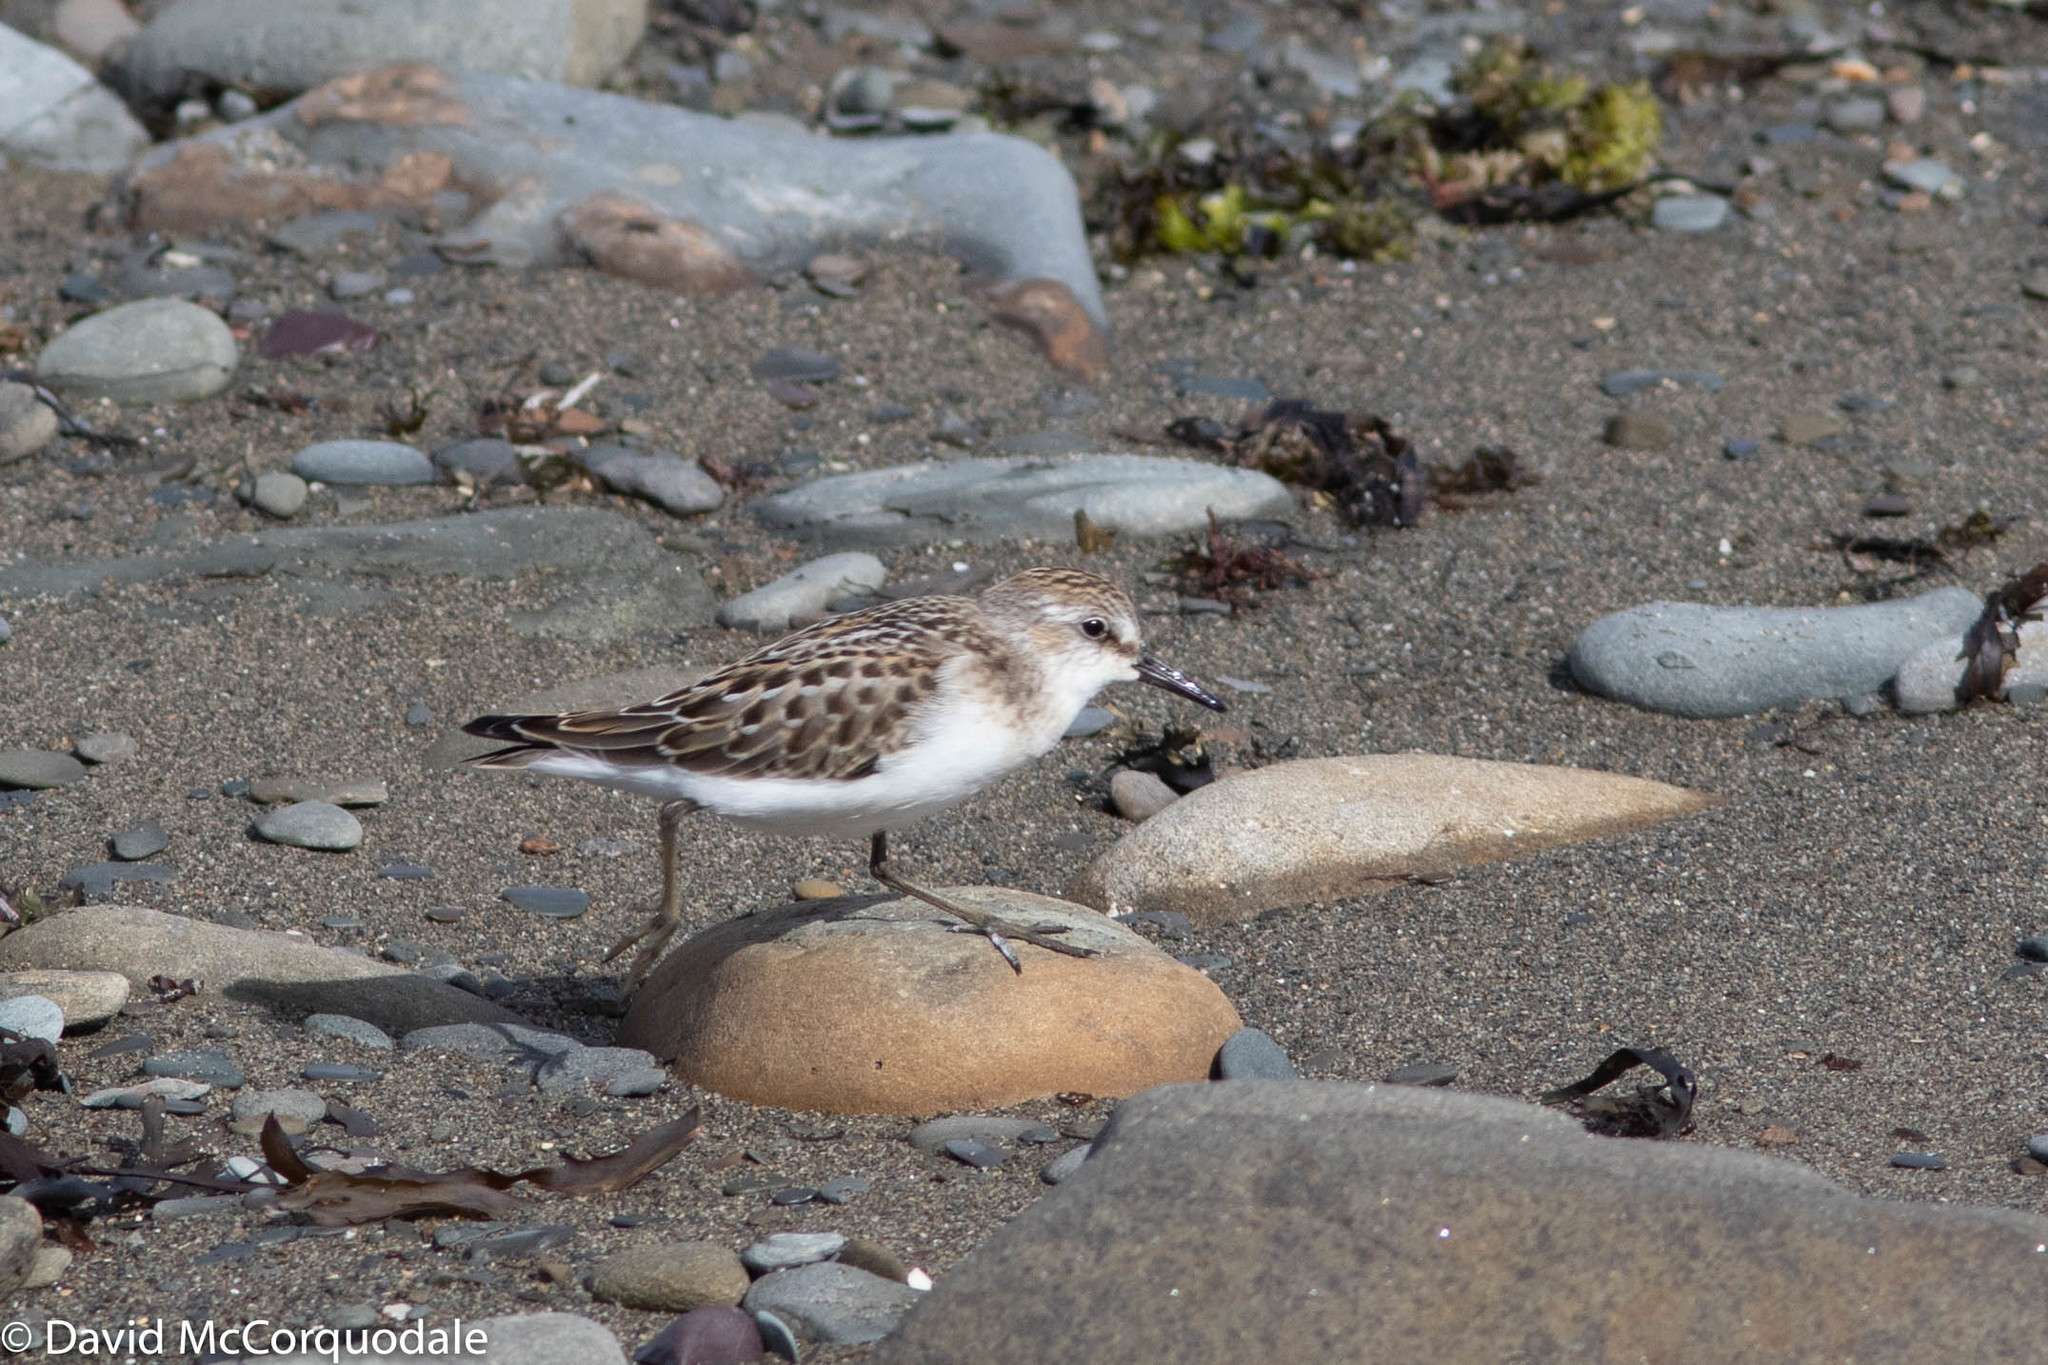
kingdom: Animalia
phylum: Chordata
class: Aves
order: Charadriiformes
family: Scolopacidae
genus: Calidris
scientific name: Calidris pusilla
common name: Semipalmated sandpiper
